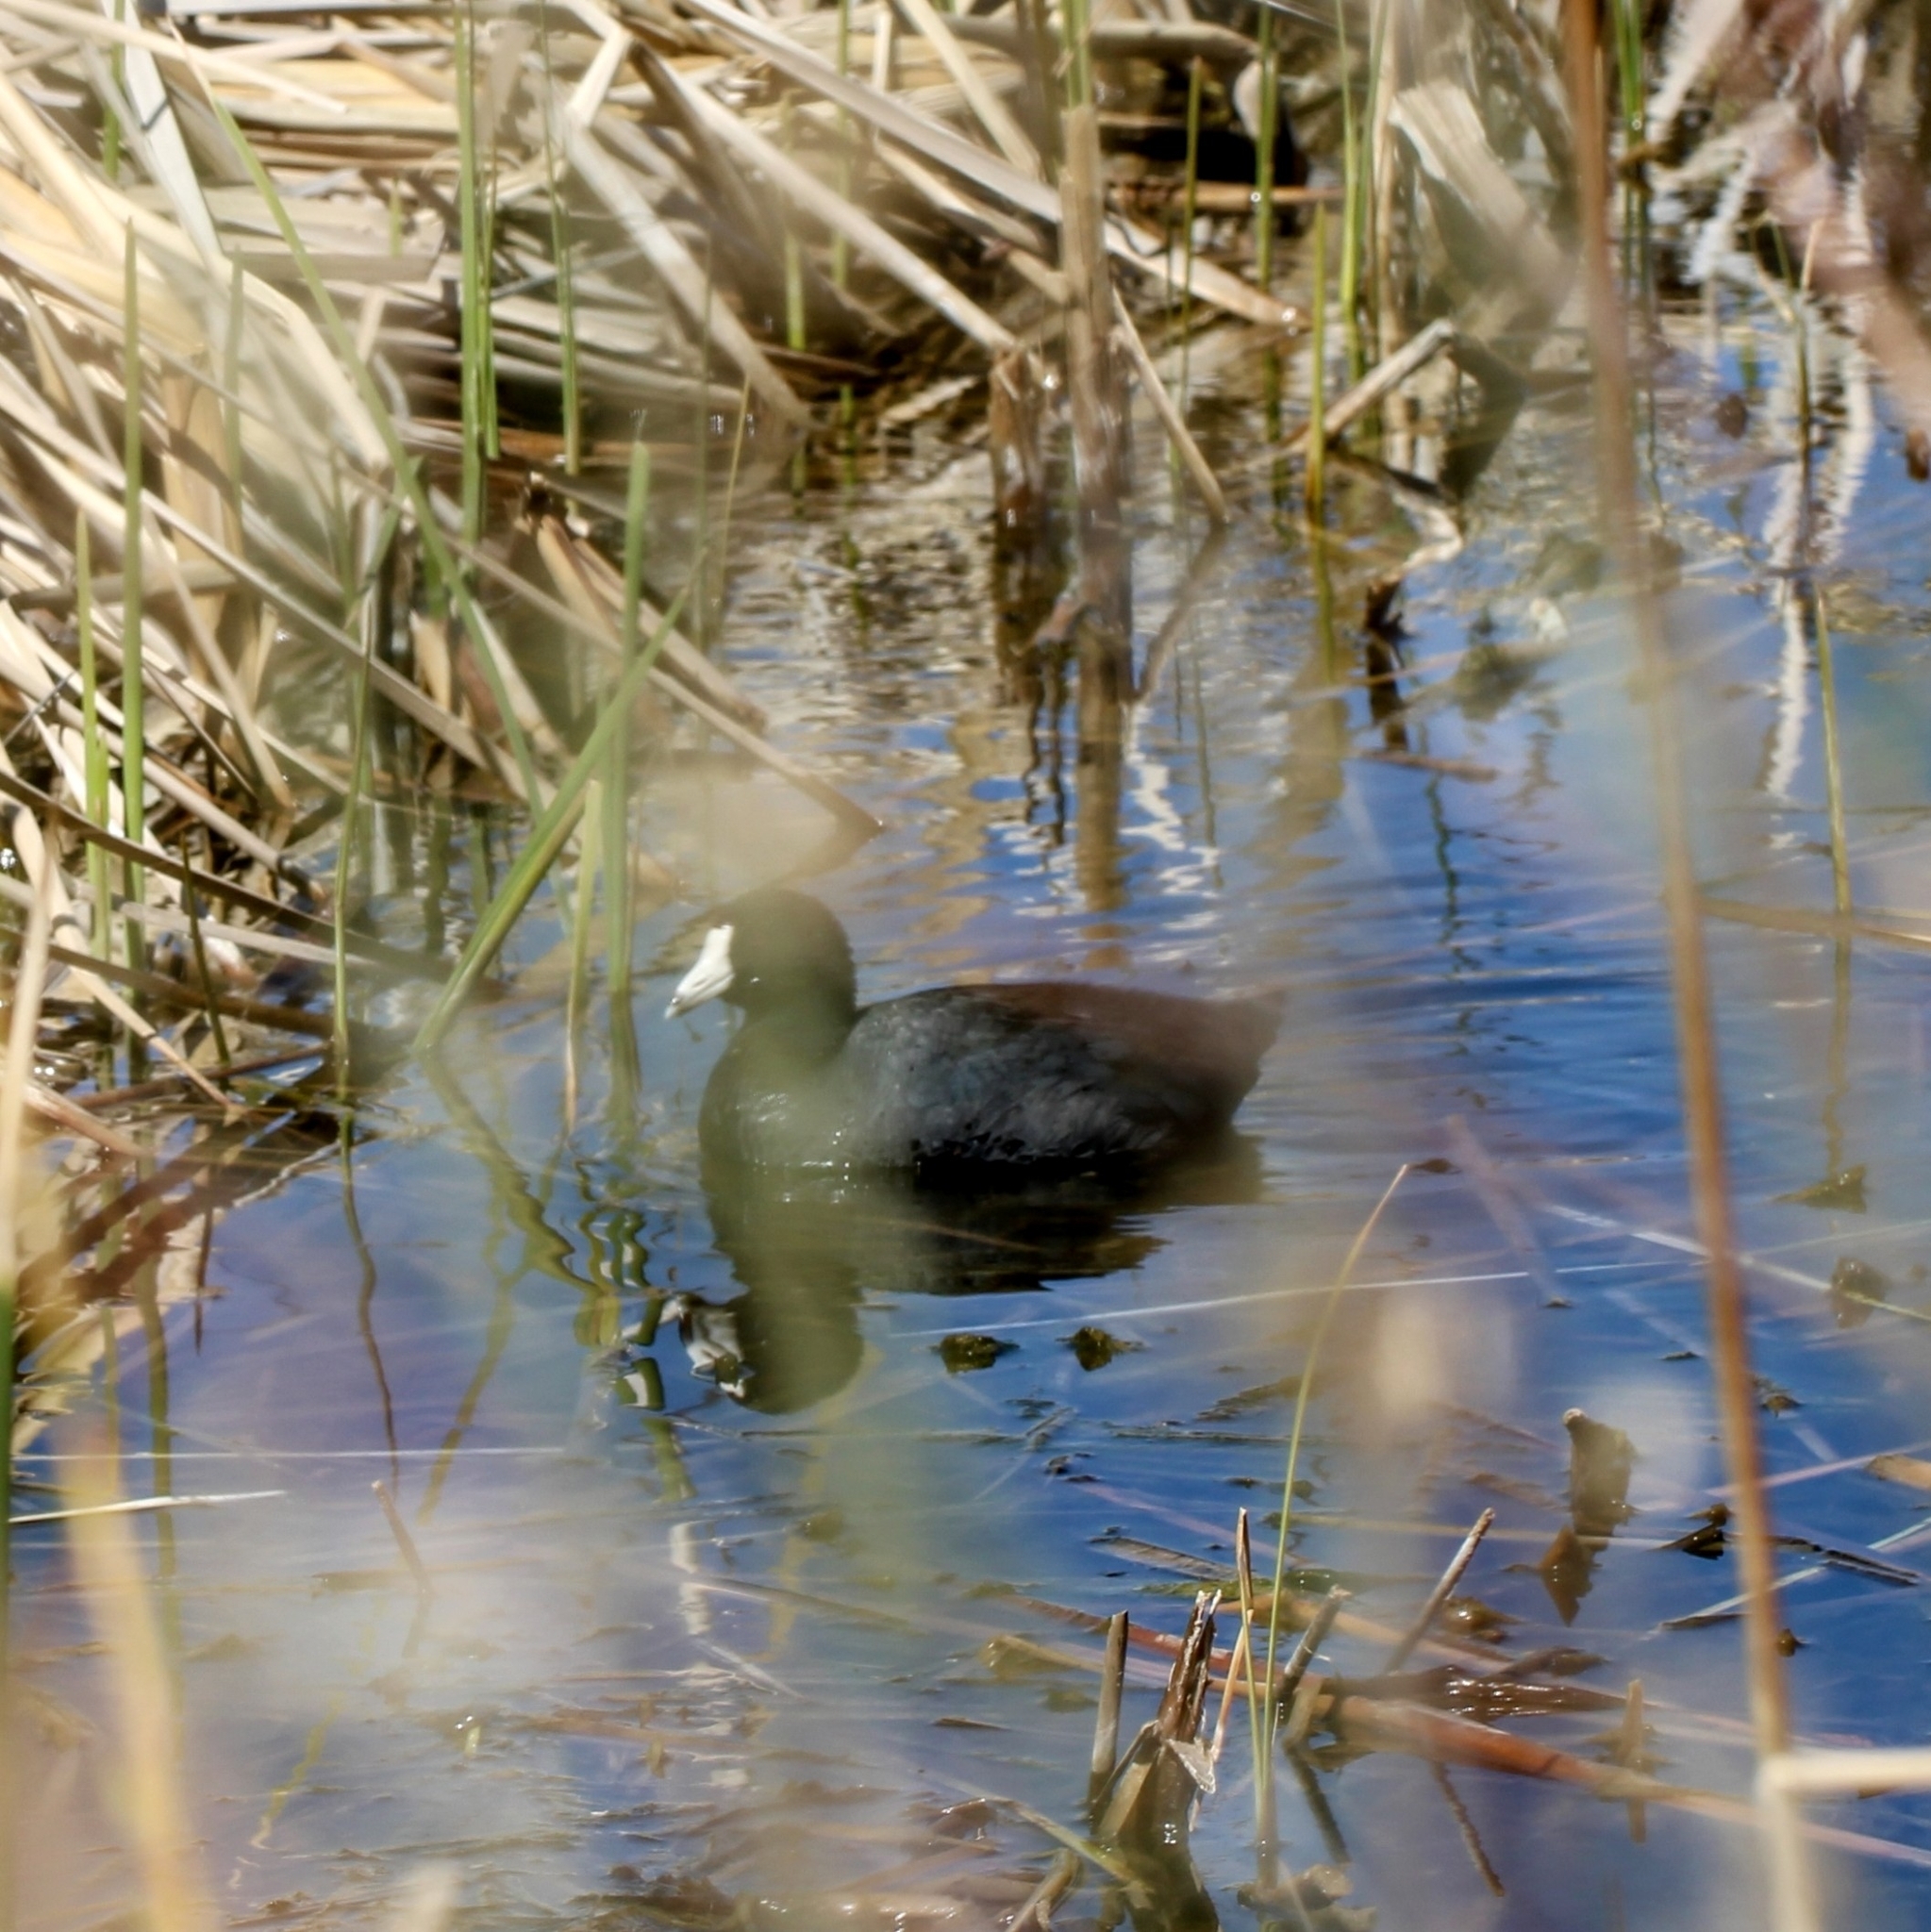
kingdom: Animalia
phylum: Chordata
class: Aves
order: Gruiformes
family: Rallidae
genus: Fulica
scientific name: Fulica americana
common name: American coot
